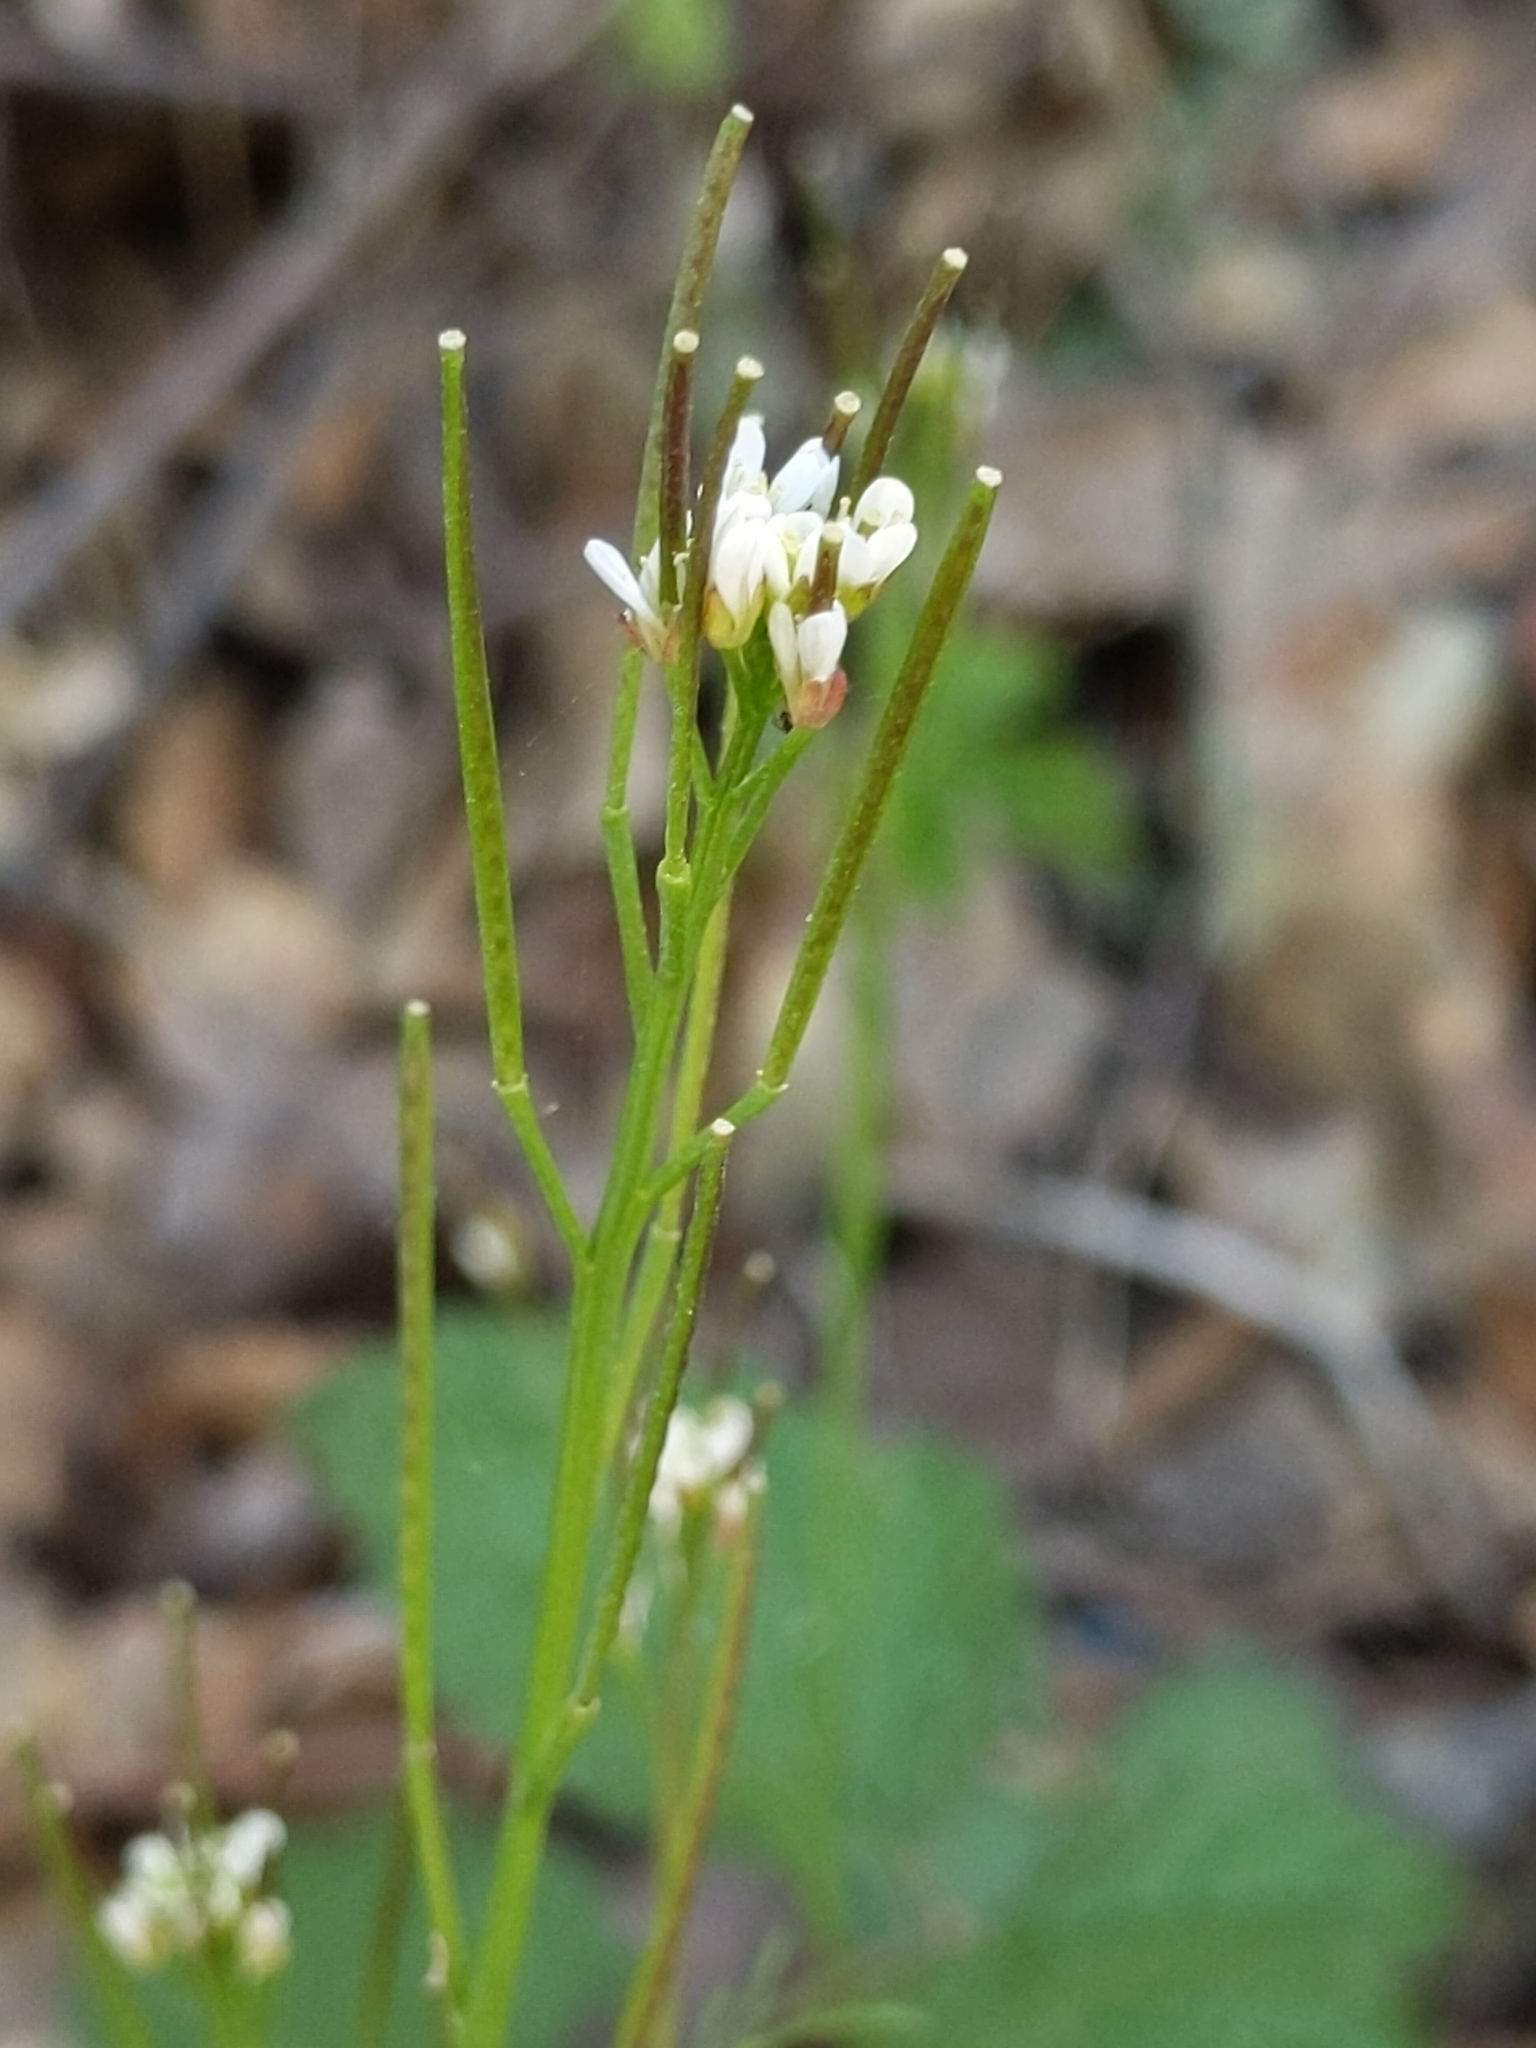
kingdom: Plantae
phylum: Tracheophyta
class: Magnoliopsida
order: Brassicales
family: Brassicaceae
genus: Cardamine
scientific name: Cardamine hirsuta
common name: Hairy bittercress
